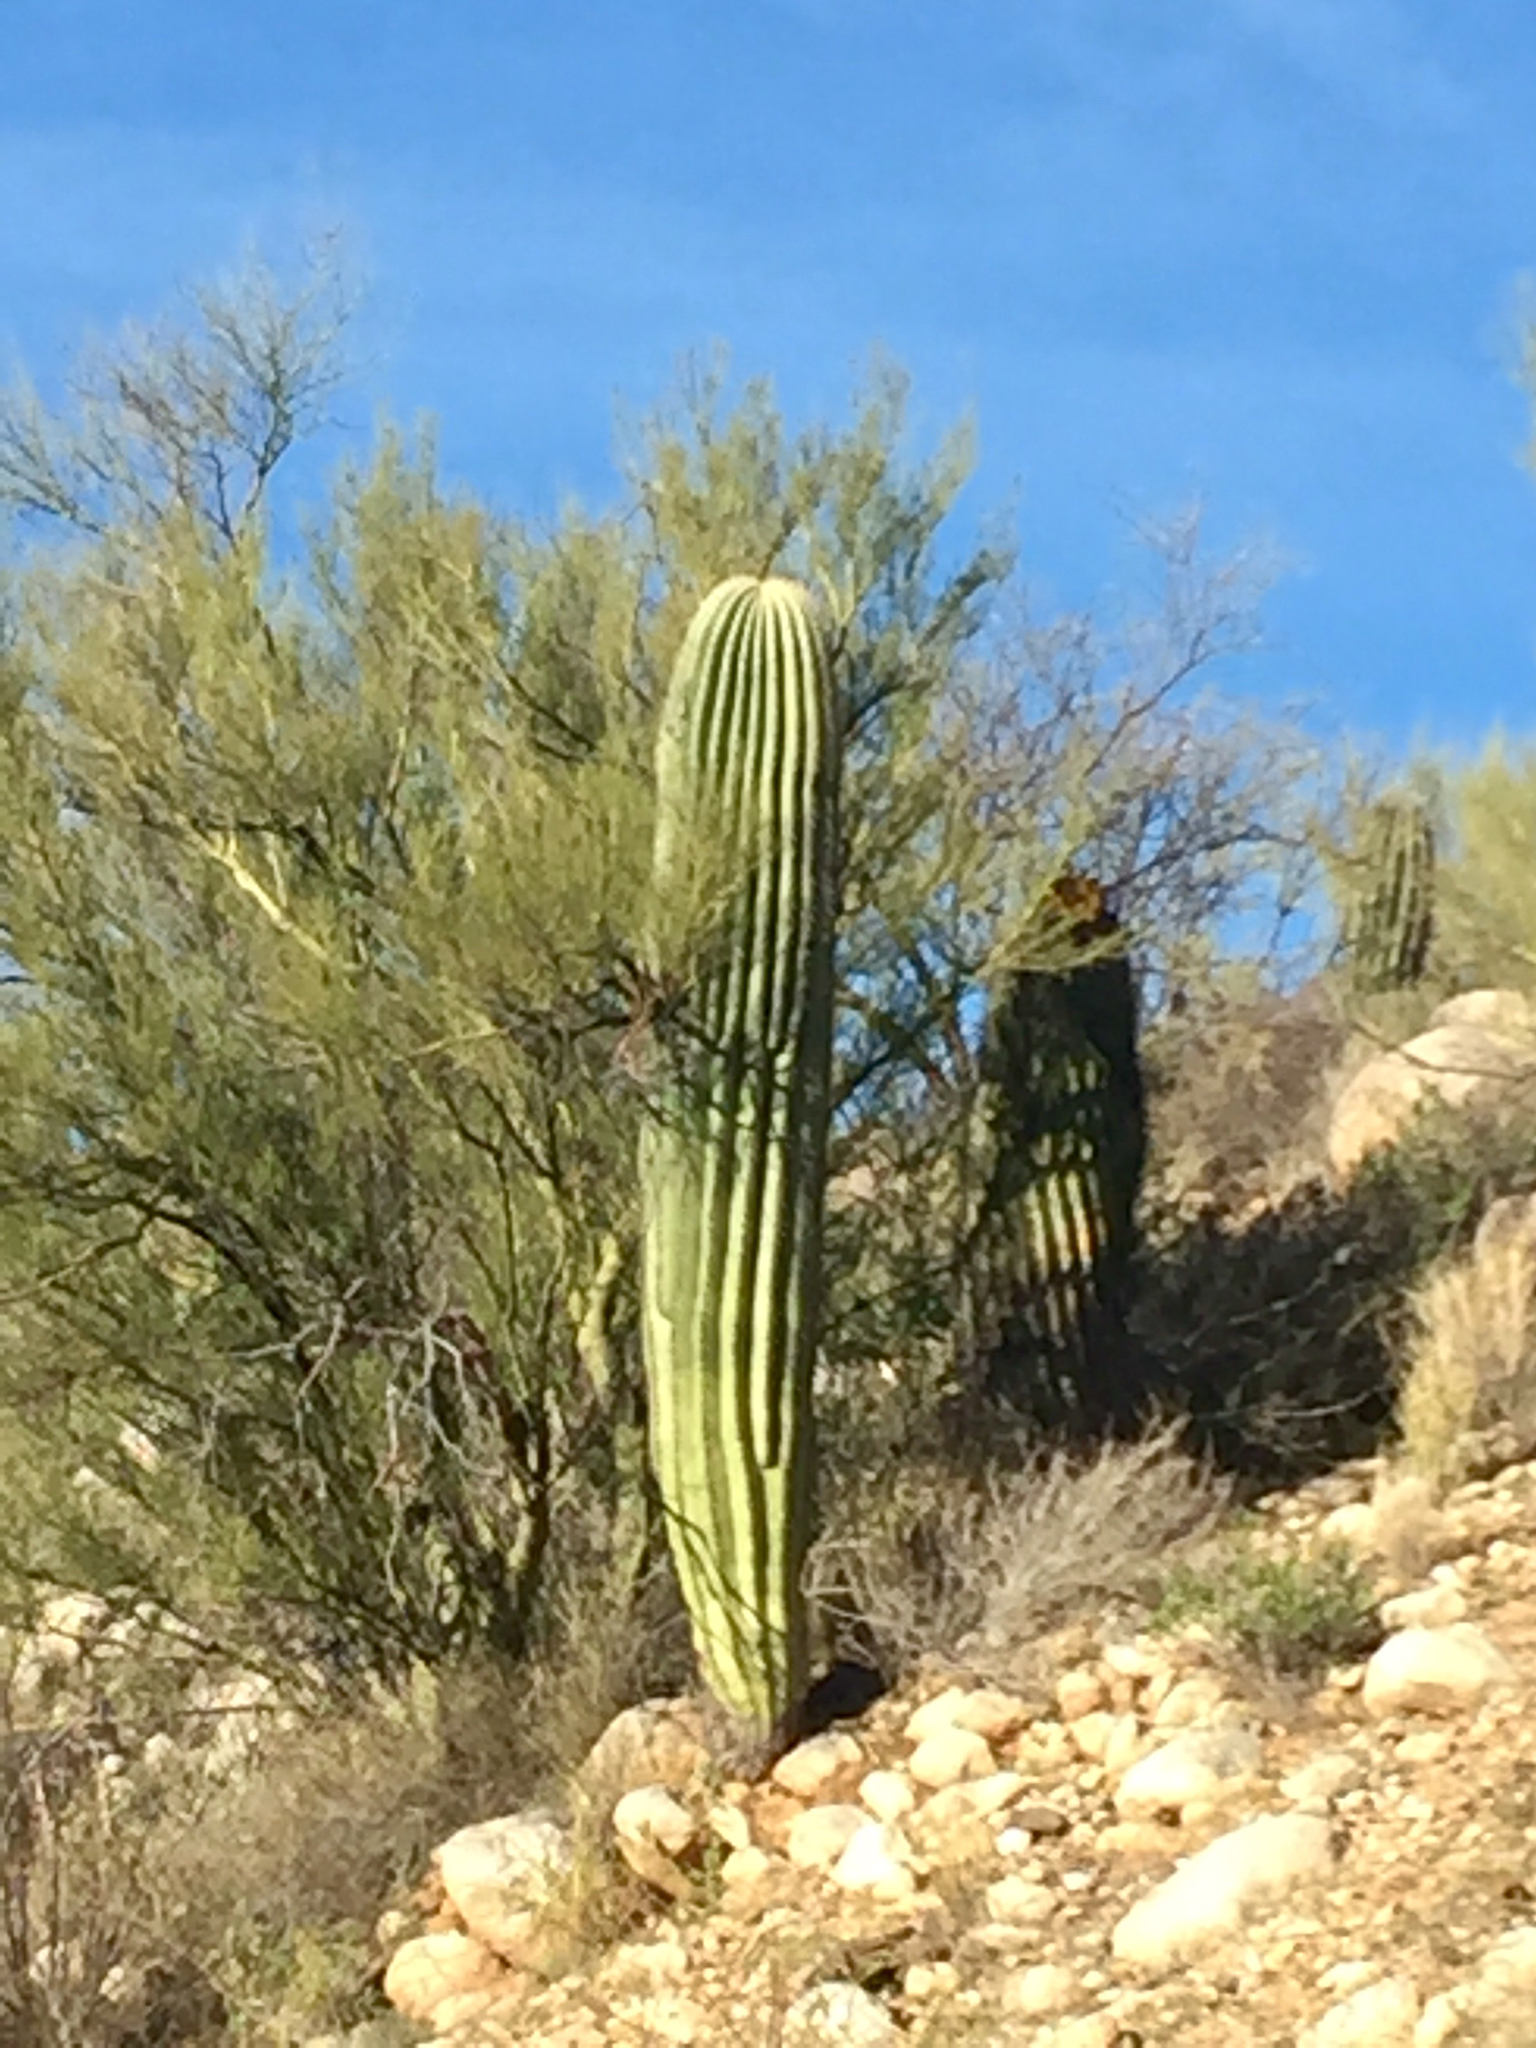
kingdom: Plantae
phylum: Tracheophyta
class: Magnoliopsida
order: Caryophyllales
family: Cactaceae
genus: Ferocactus
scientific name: Ferocactus wislizeni
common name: Candy barrel cactus
